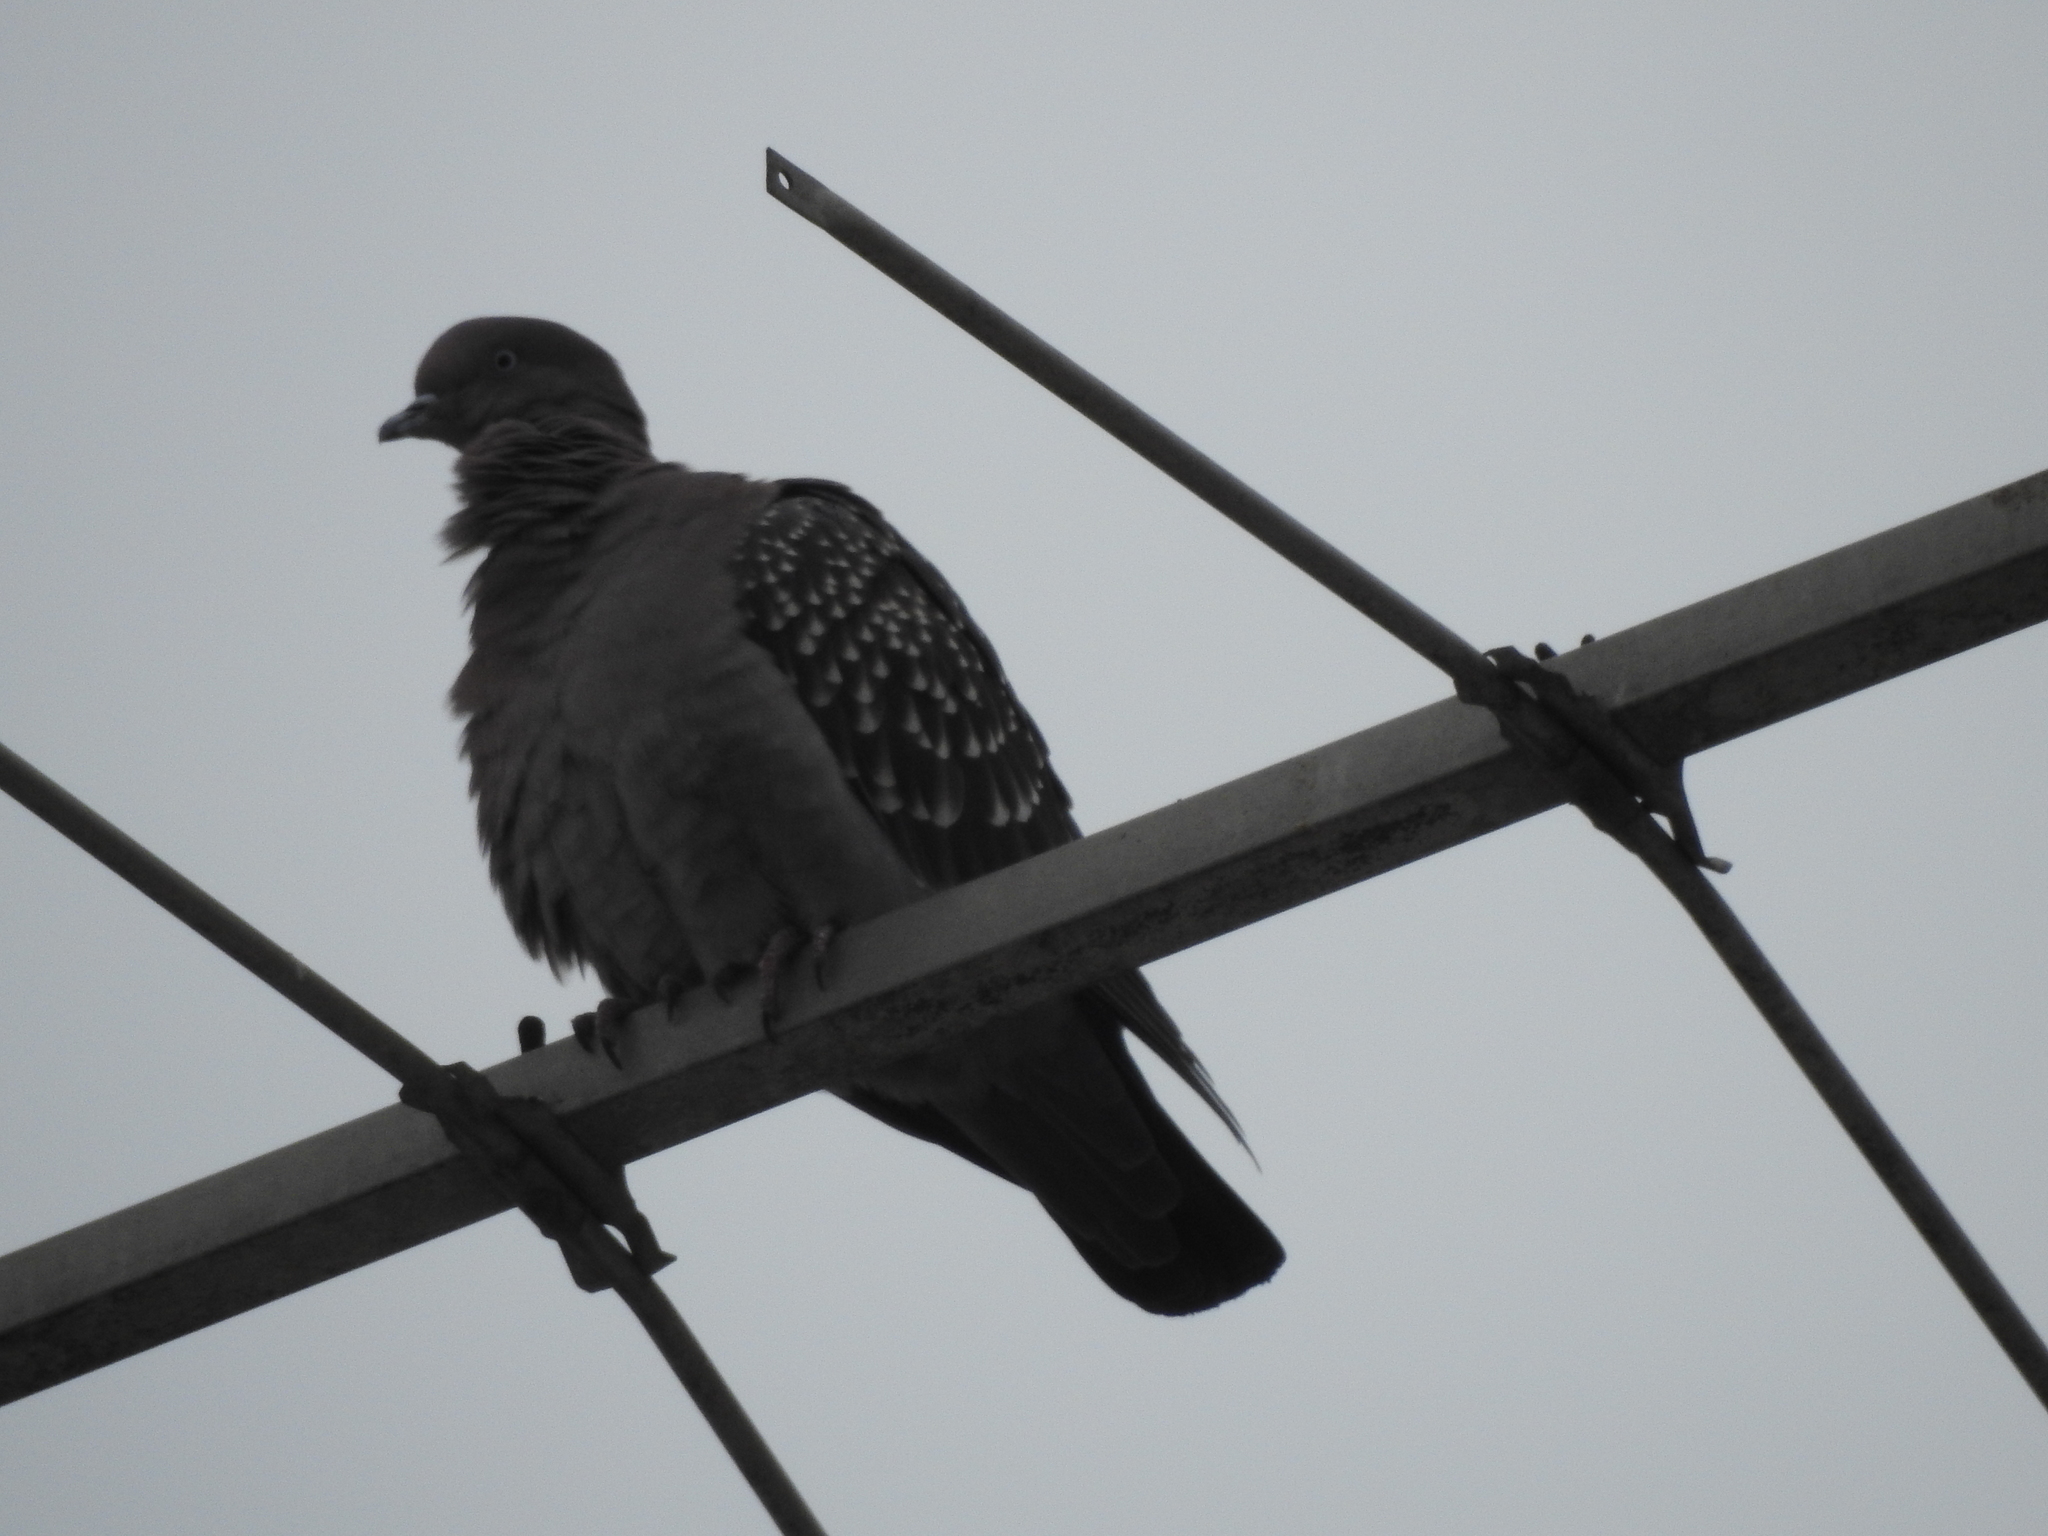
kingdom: Animalia
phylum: Chordata
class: Aves
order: Columbiformes
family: Columbidae
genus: Patagioenas
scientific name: Patagioenas maculosa
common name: Spot-winged pigeon
